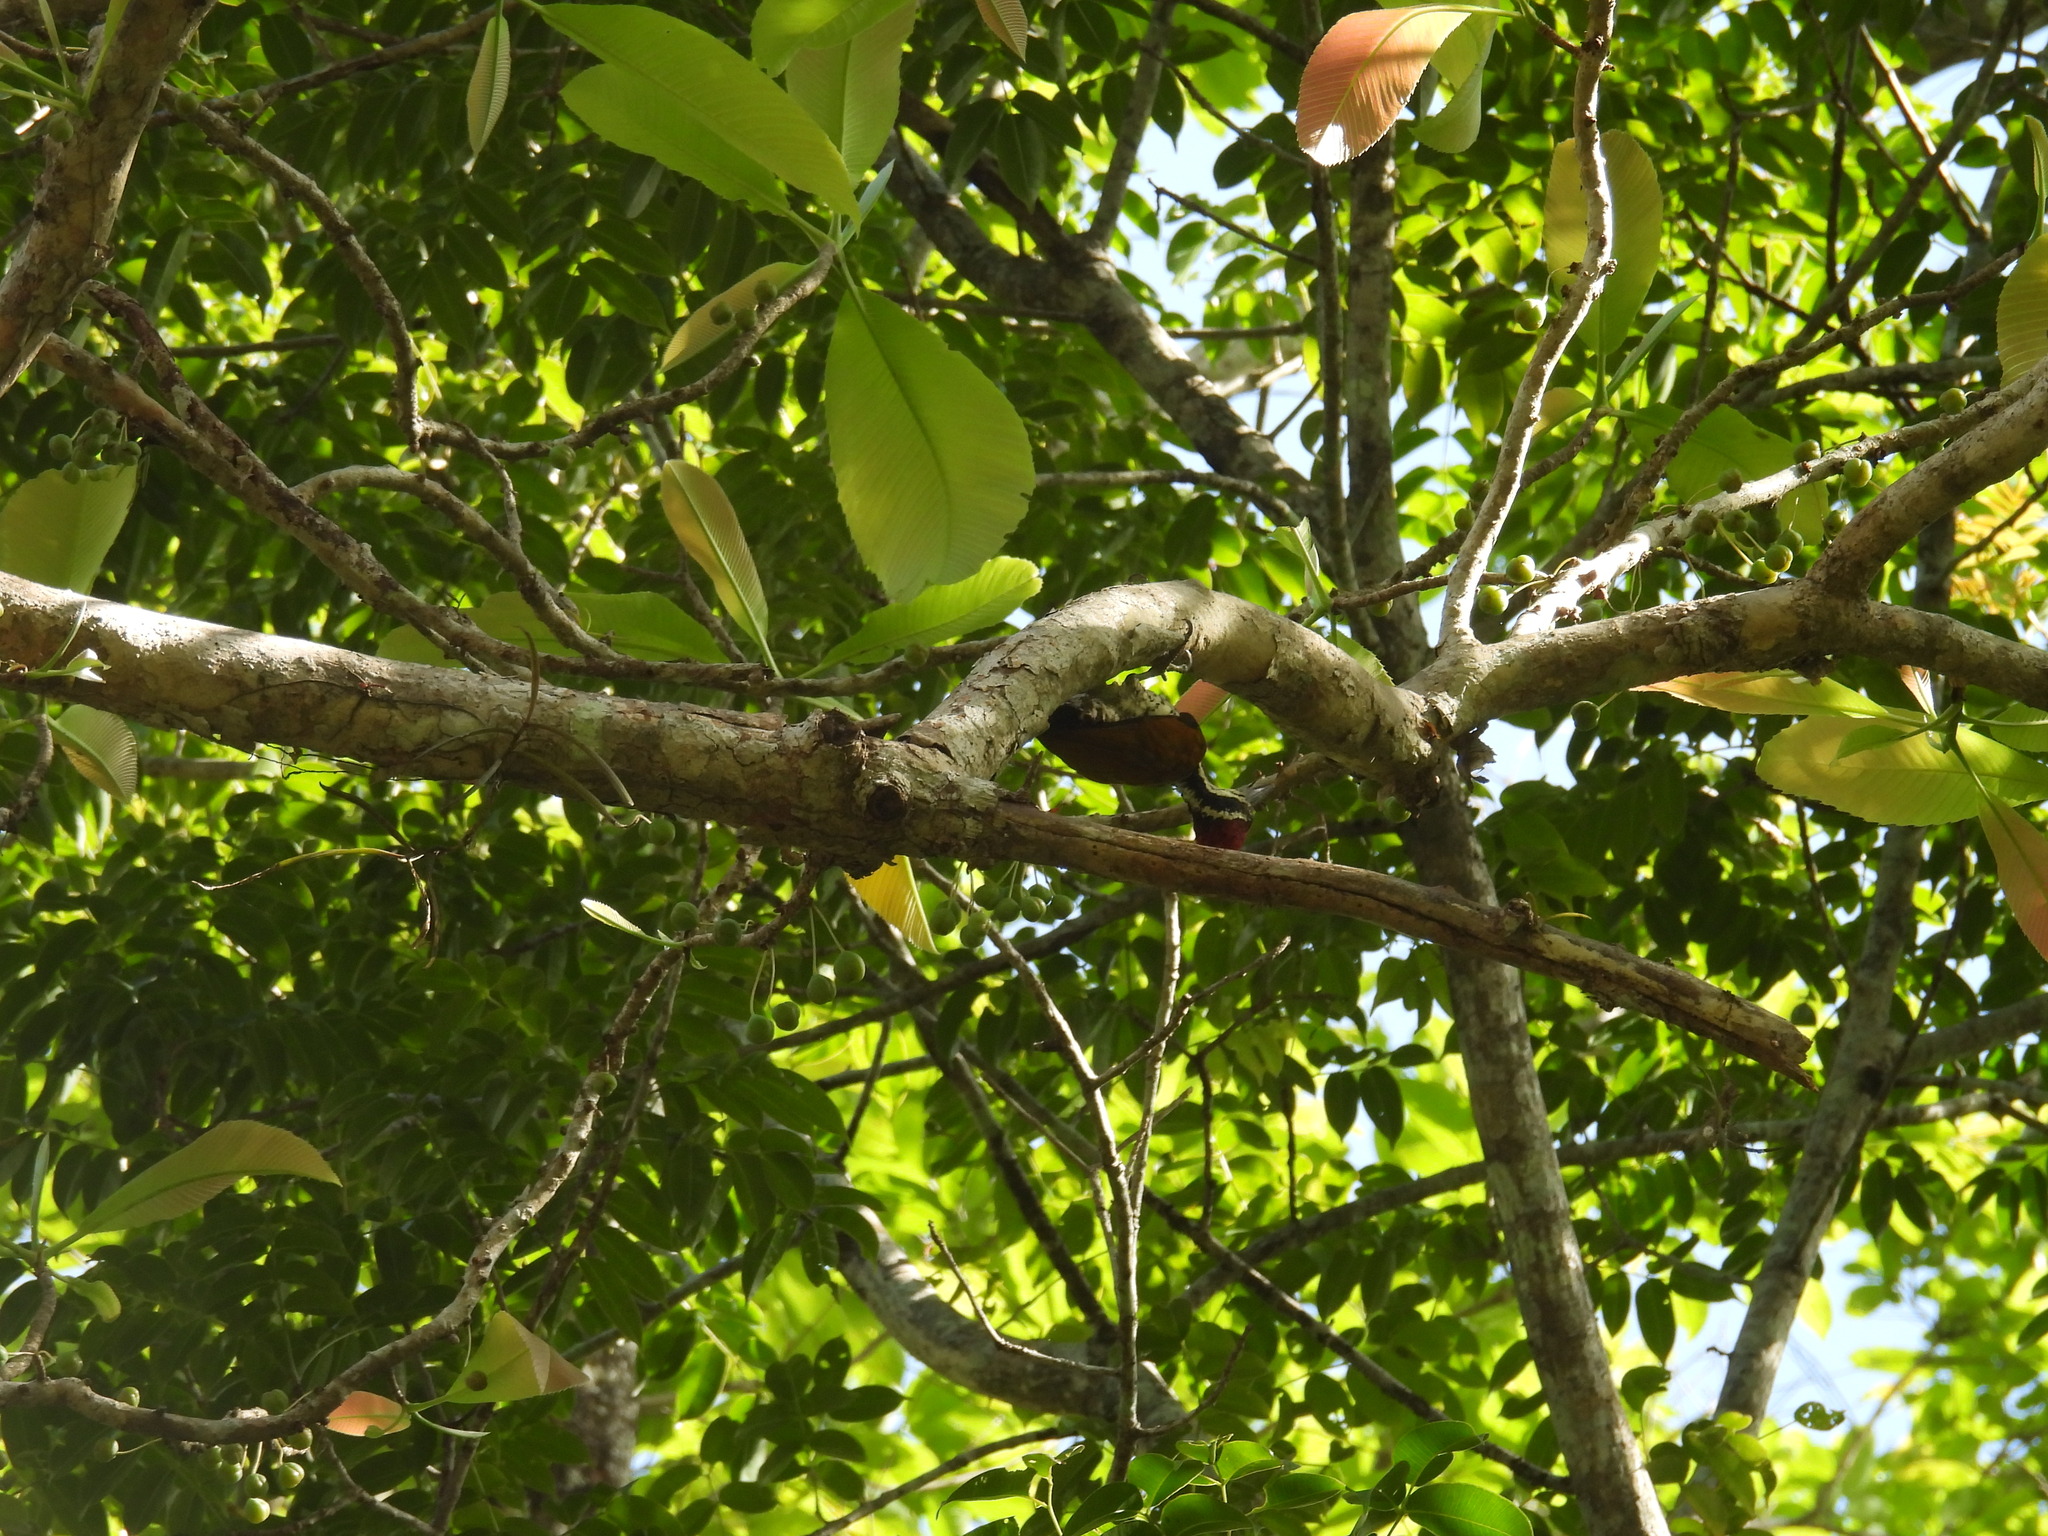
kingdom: Animalia
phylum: Chordata
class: Aves
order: Piciformes
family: Picidae
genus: Chrysocolaptes
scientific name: Chrysocolaptes socialis
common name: Malabar flameback
